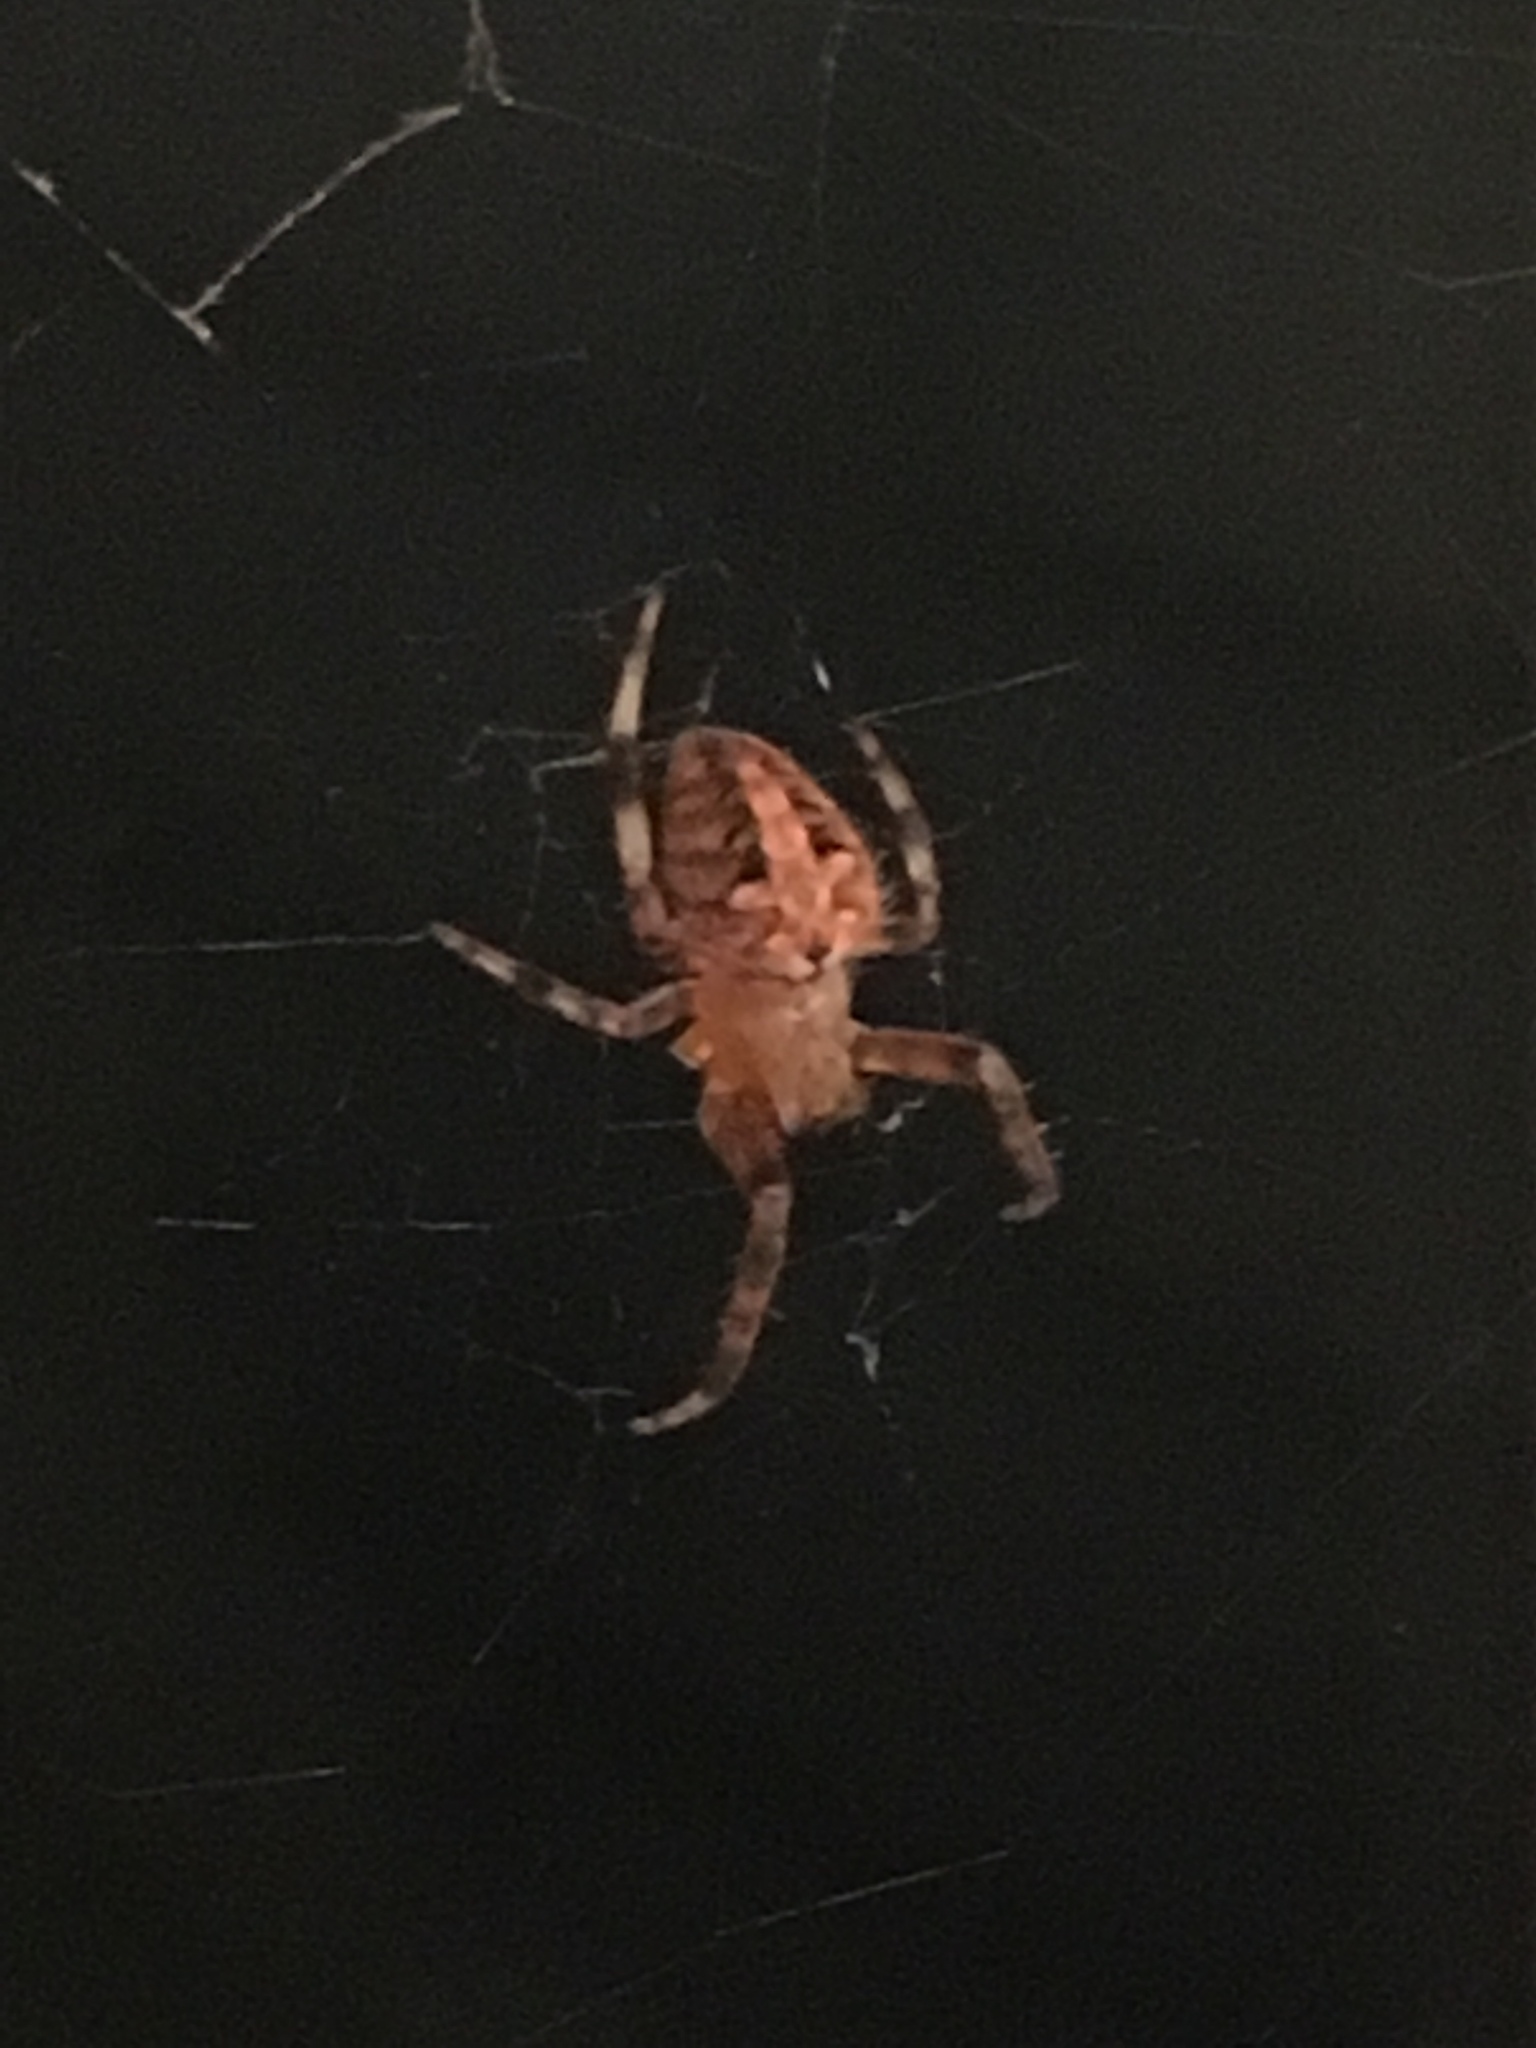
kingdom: Animalia
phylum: Arthropoda
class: Arachnida
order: Araneae
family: Araneidae
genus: Neoscona
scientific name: Neoscona arabesca
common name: Orb weavers
